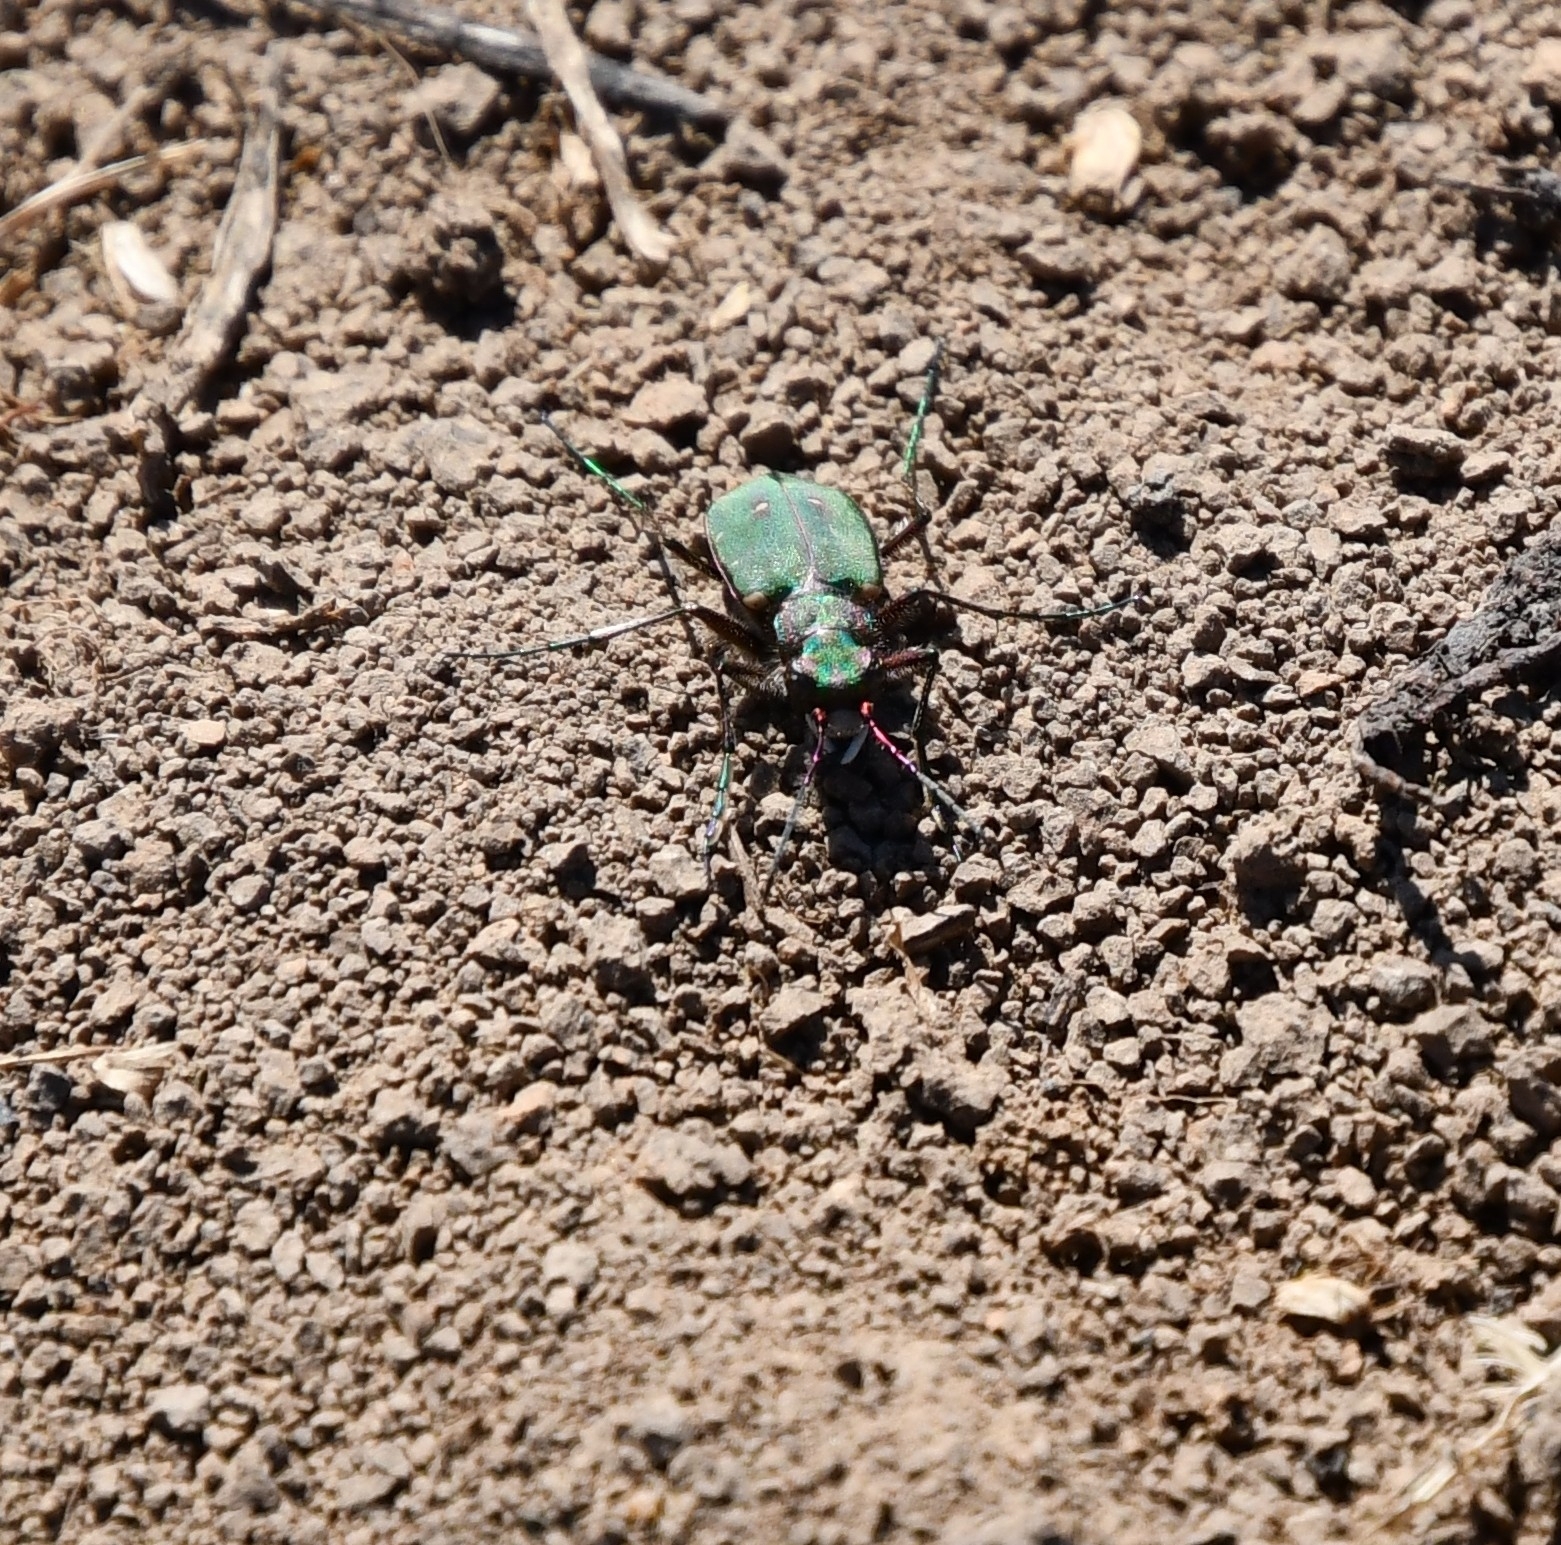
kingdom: Animalia
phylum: Arthropoda
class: Insecta
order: Coleoptera
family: Carabidae
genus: Cicindela
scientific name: Cicindela campestris
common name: Common tiger beetle
